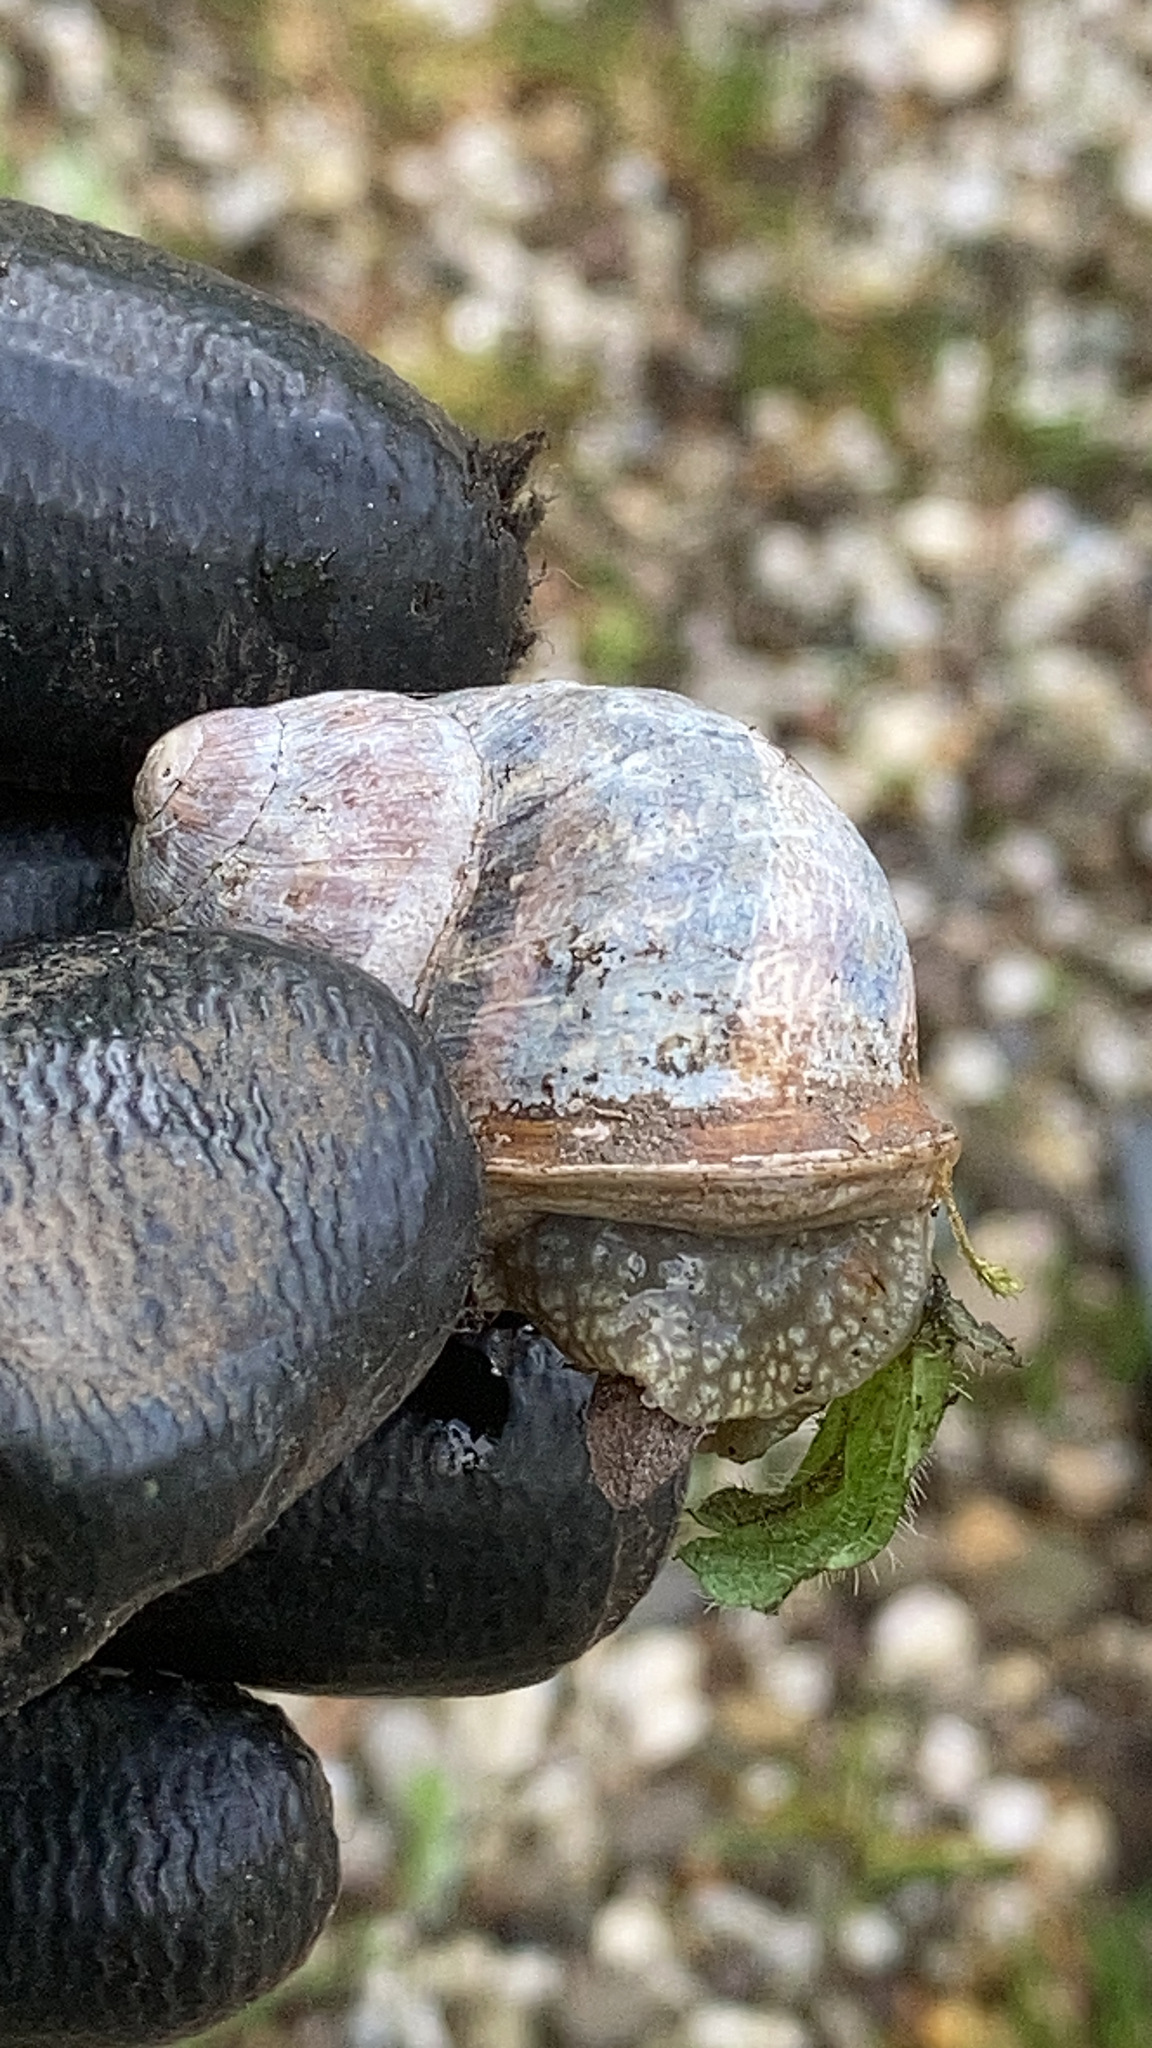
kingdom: Animalia
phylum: Mollusca
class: Gastropoda
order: Stylommatophora
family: Helicidae
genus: Cornu
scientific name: Cornu aspersum
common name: Brown garden snail
